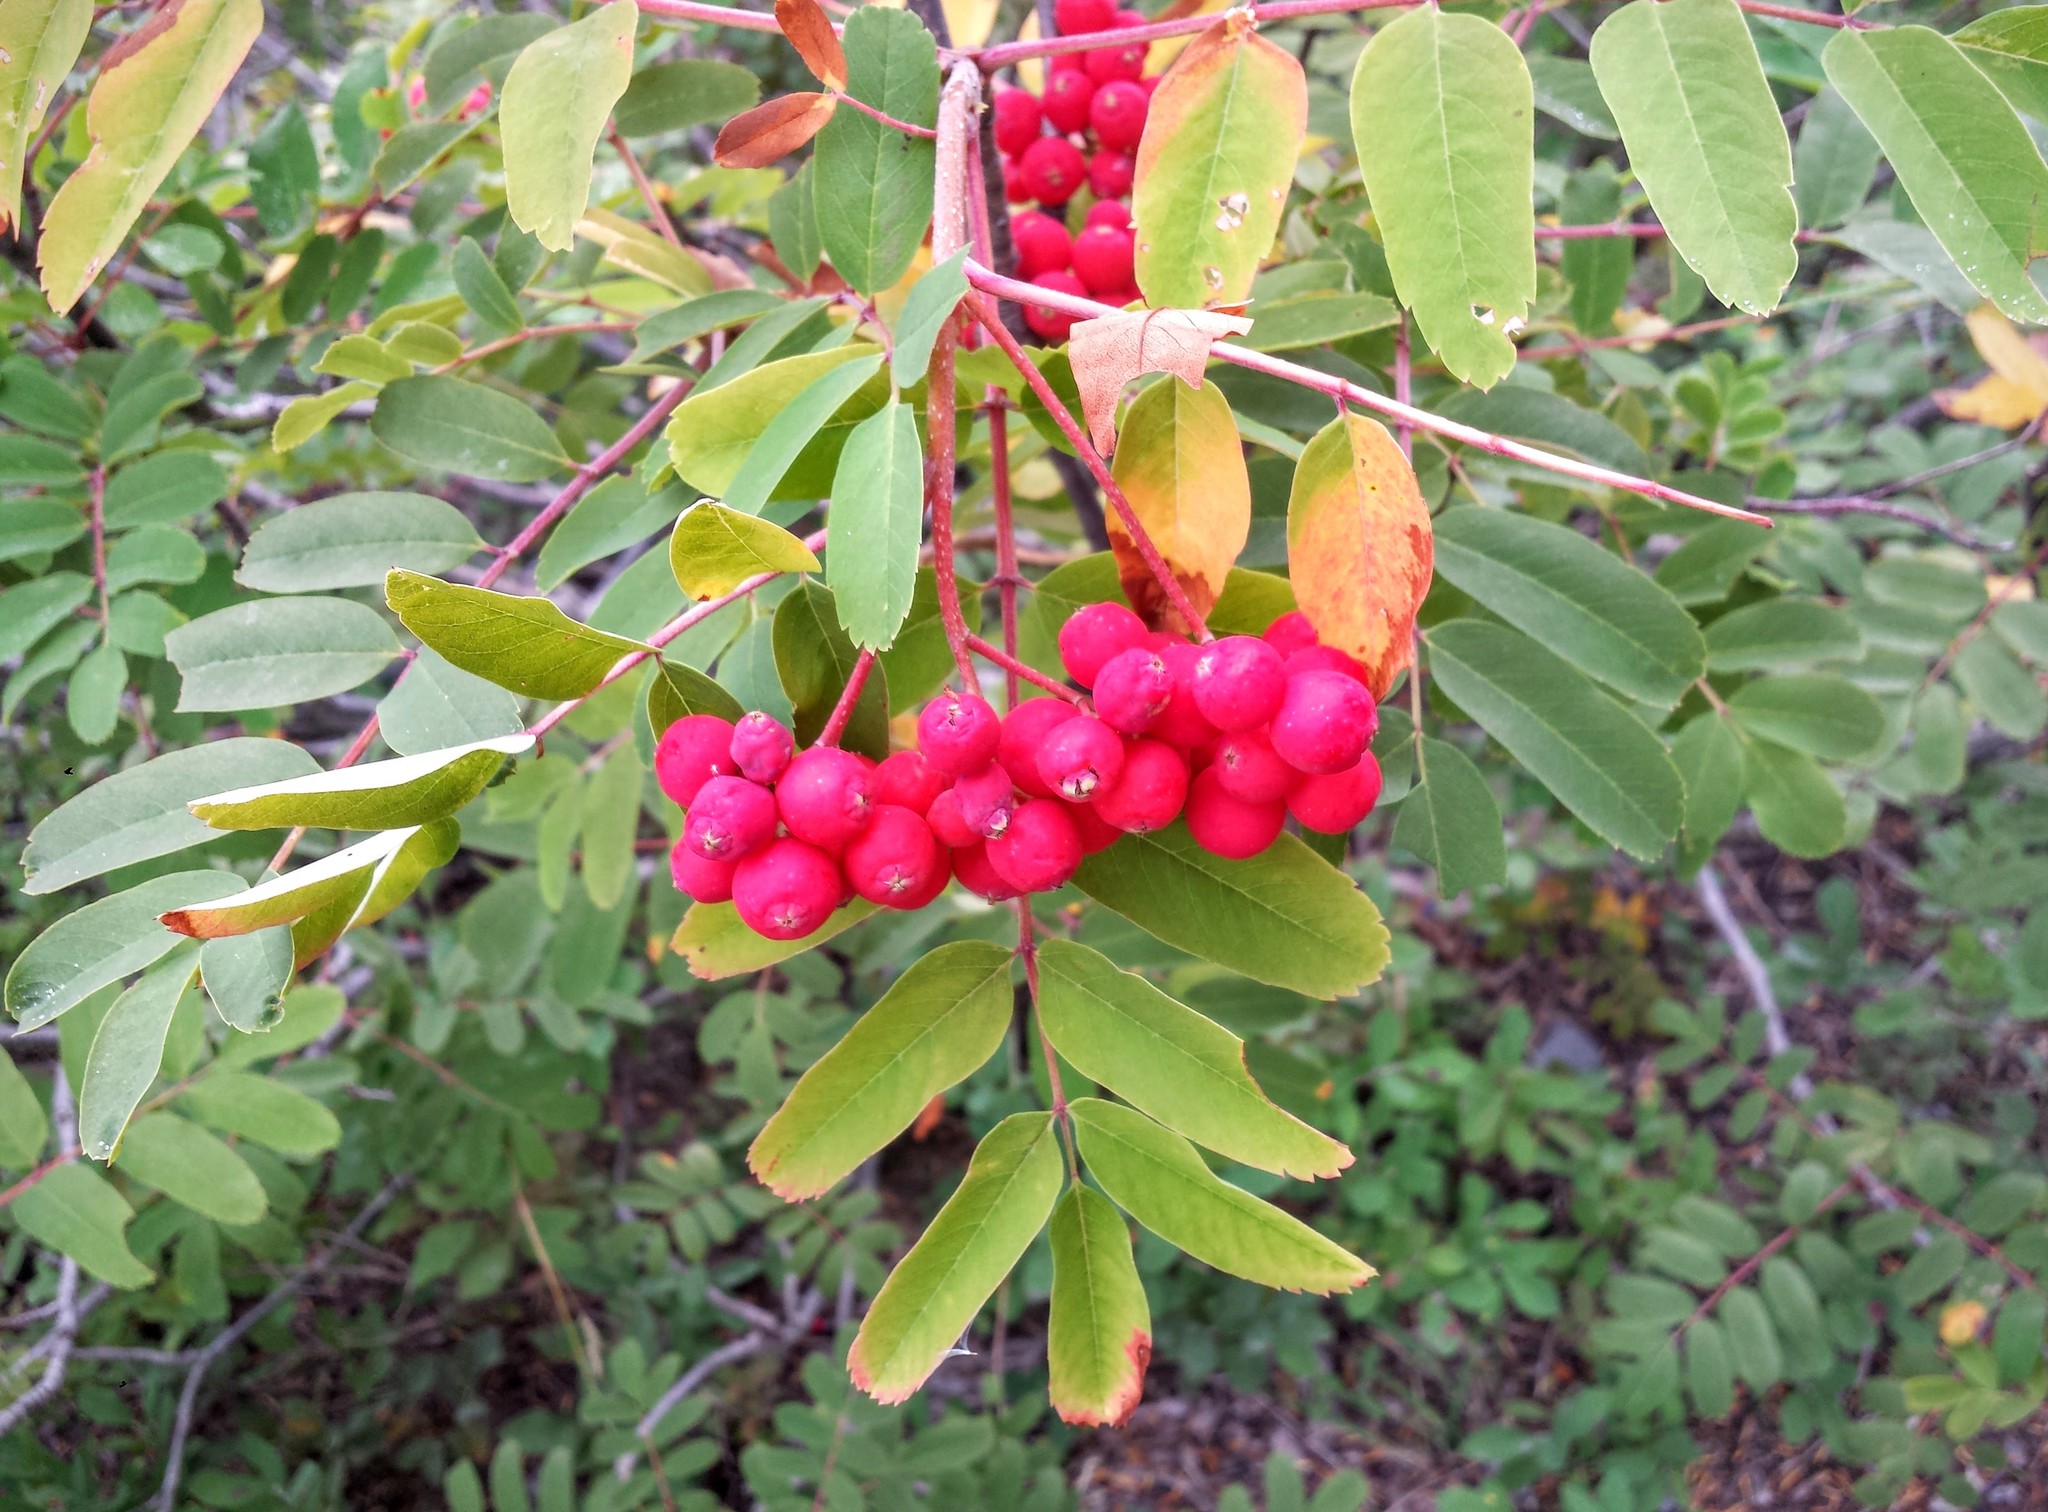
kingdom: Plantae
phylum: Tracheophyta
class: Magnoliopsida
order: Rosales
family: Rosaceae
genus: Sorbus
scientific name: Sorbus sitchensis
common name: Sitka mountain-ash
